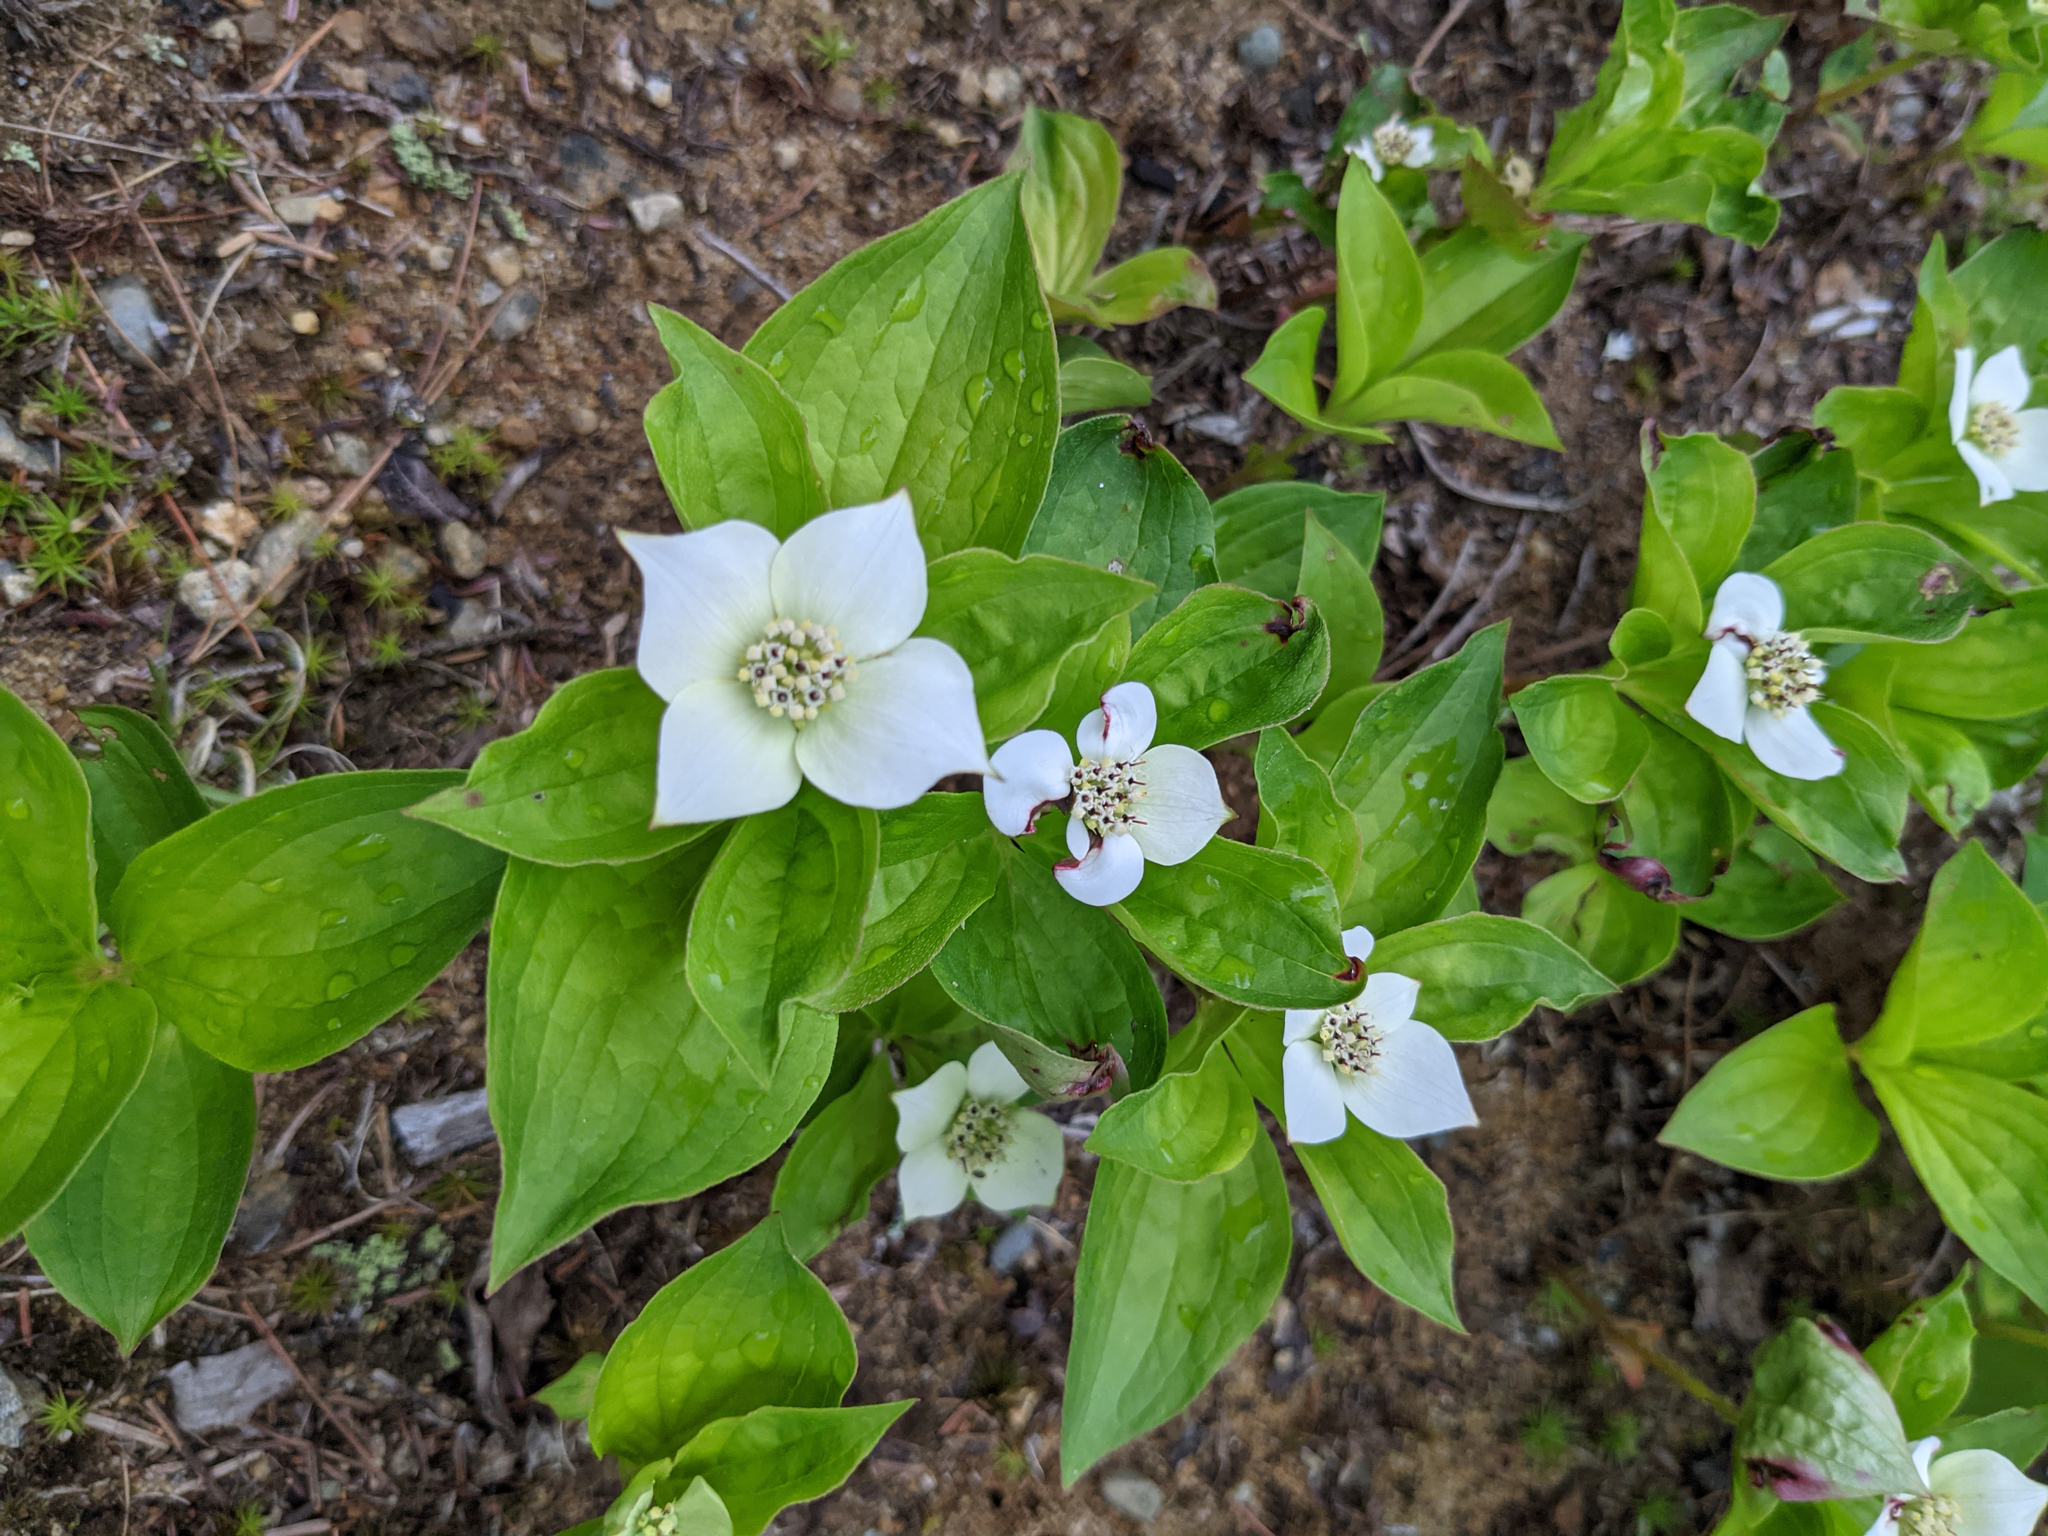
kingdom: Plantae
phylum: Tracheophyta
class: Magnoliopsida
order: Cornales
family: Cornaceae
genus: Cornus
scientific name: Cornus canadensis
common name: Creeping dogwood
